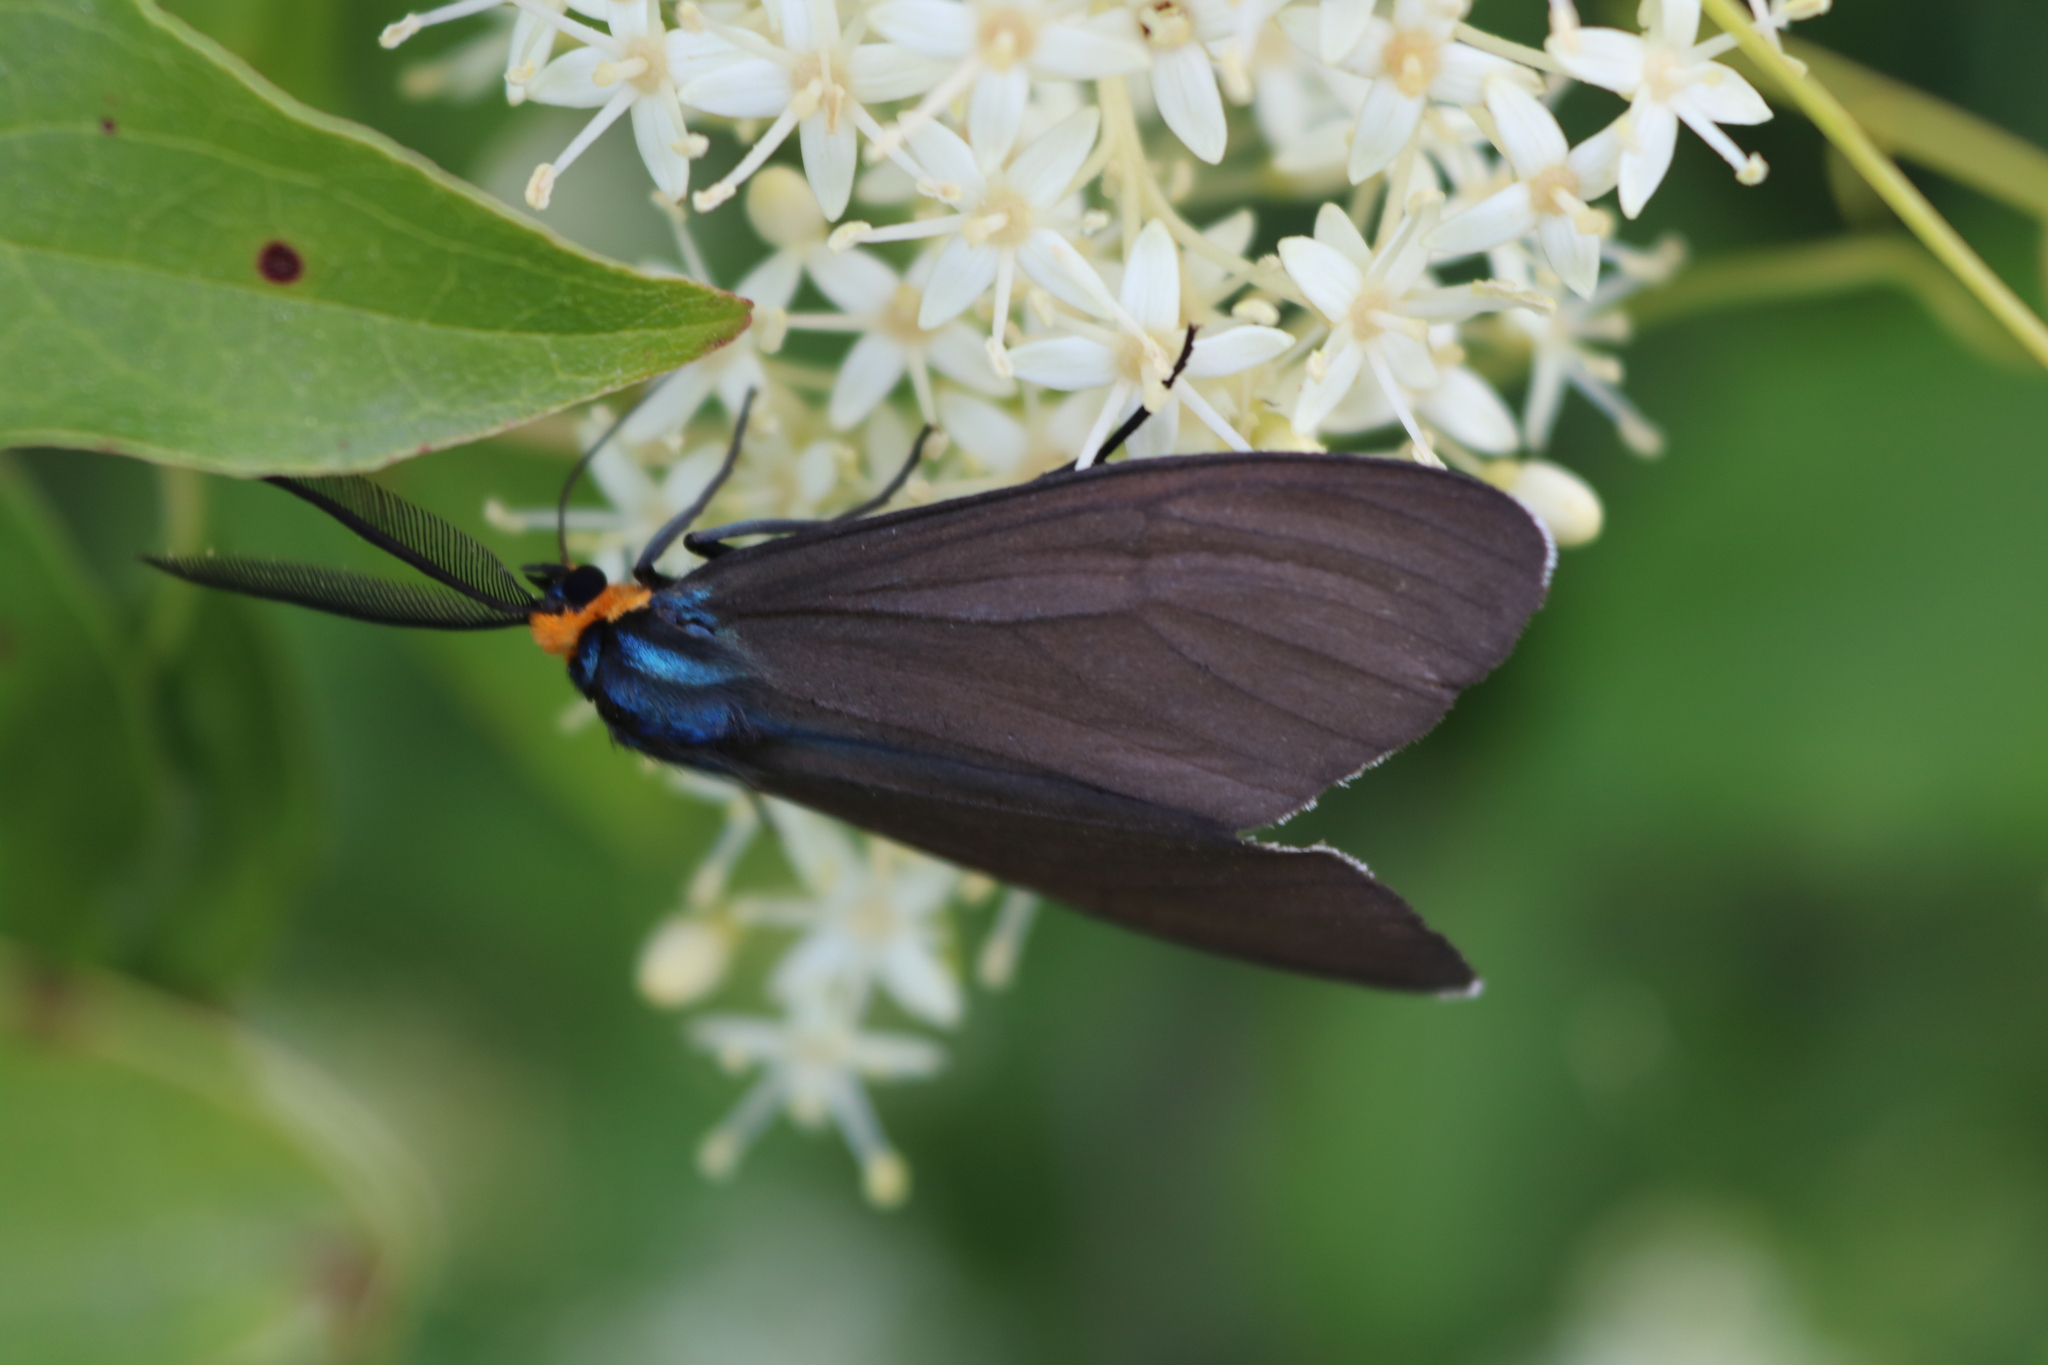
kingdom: Animalia
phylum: Arthropoda
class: Insecta
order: Lepidoptera
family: Erebidae
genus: Ctenucha
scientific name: Ctenucha virginica
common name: Virginia ctenucha moth
